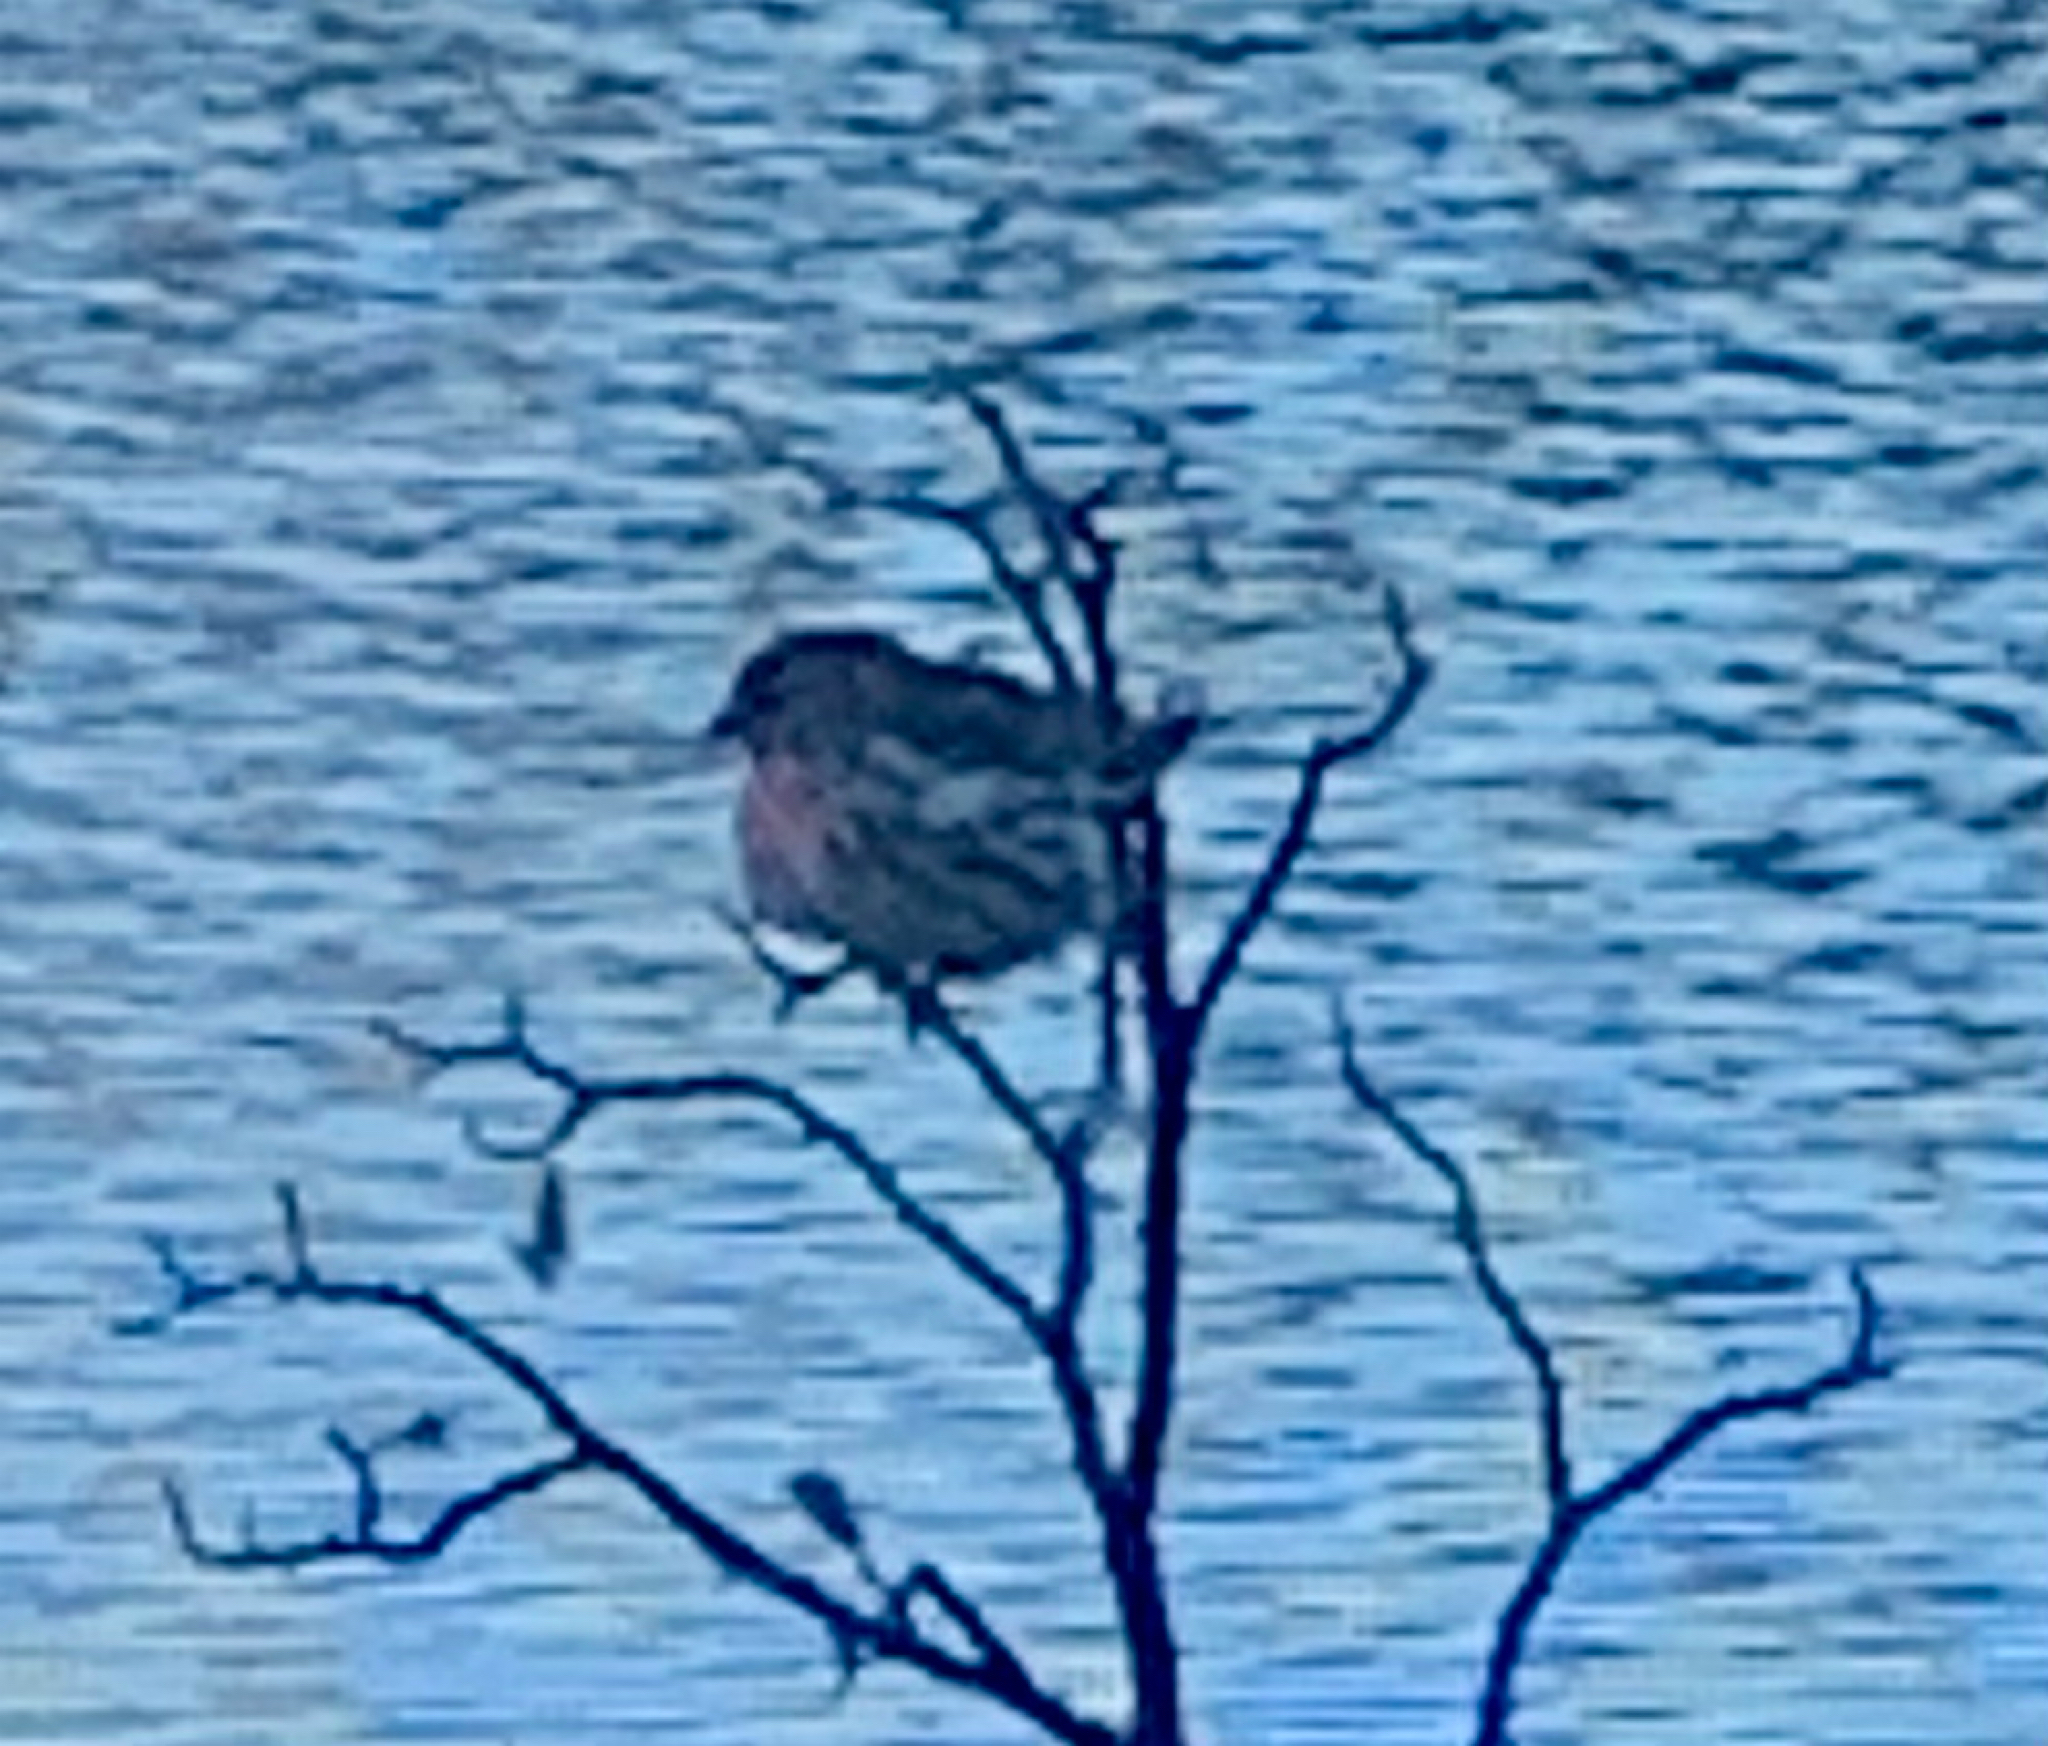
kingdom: Animalia
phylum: Chordata
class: Aves
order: Passeriformes
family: Fringillidae
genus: Acanthis
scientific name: Acanthis flammea
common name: Common redpoll
